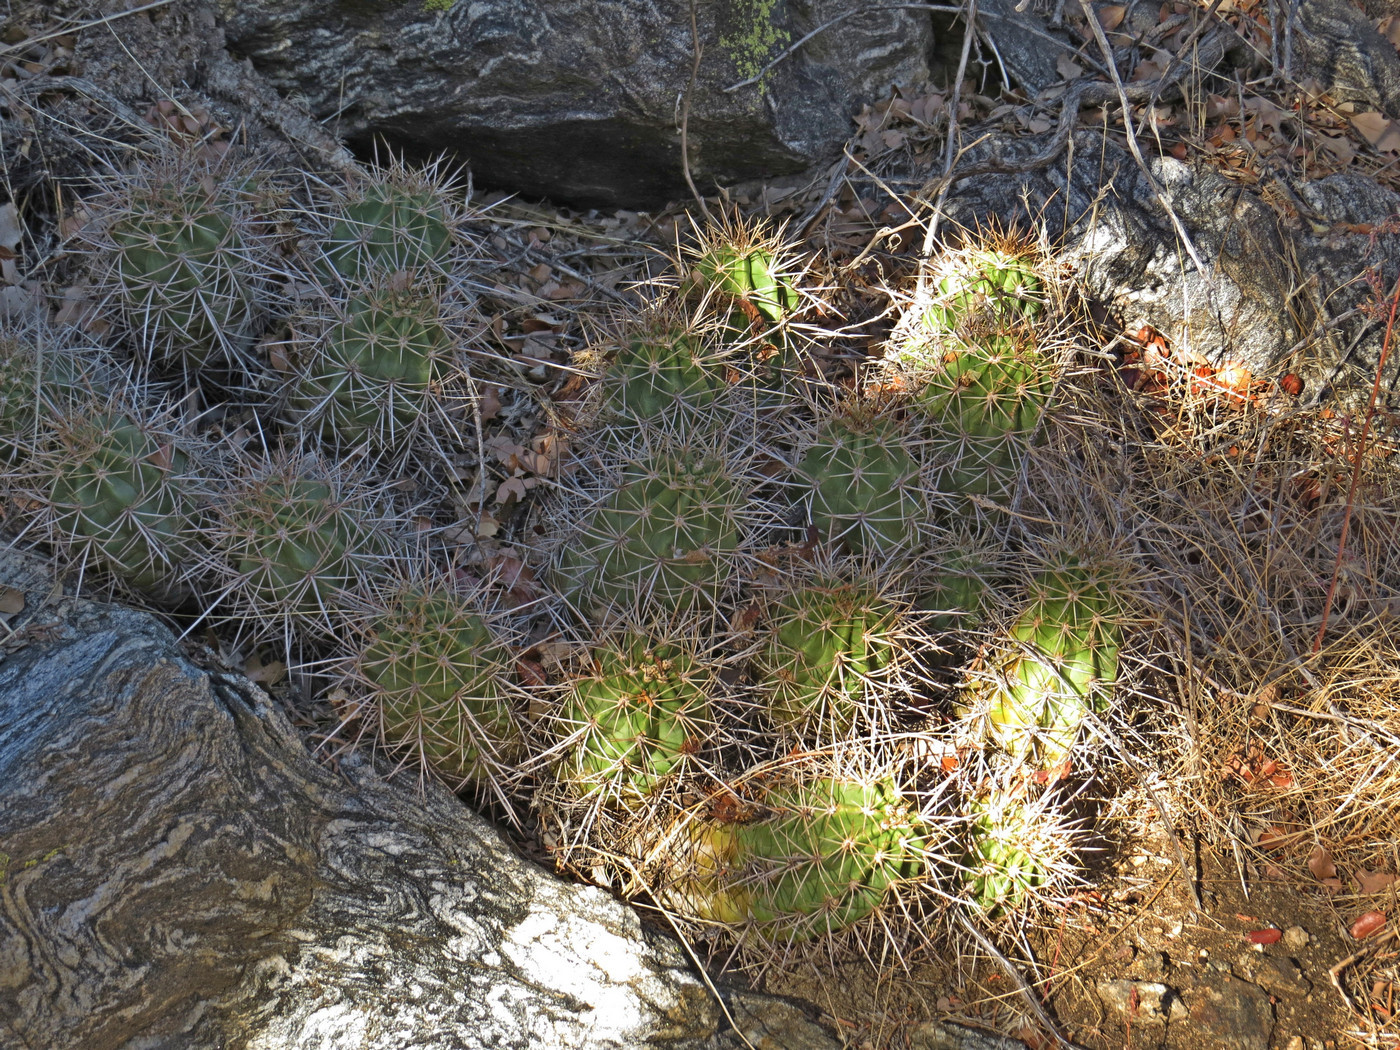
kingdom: Plantae
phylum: Tracheophyta
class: Magnoliopsida
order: Caryophyllales
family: Cactaceae
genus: Echinocereus
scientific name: Echinocereus triglochidiatus
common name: Claretcup hedgehog
